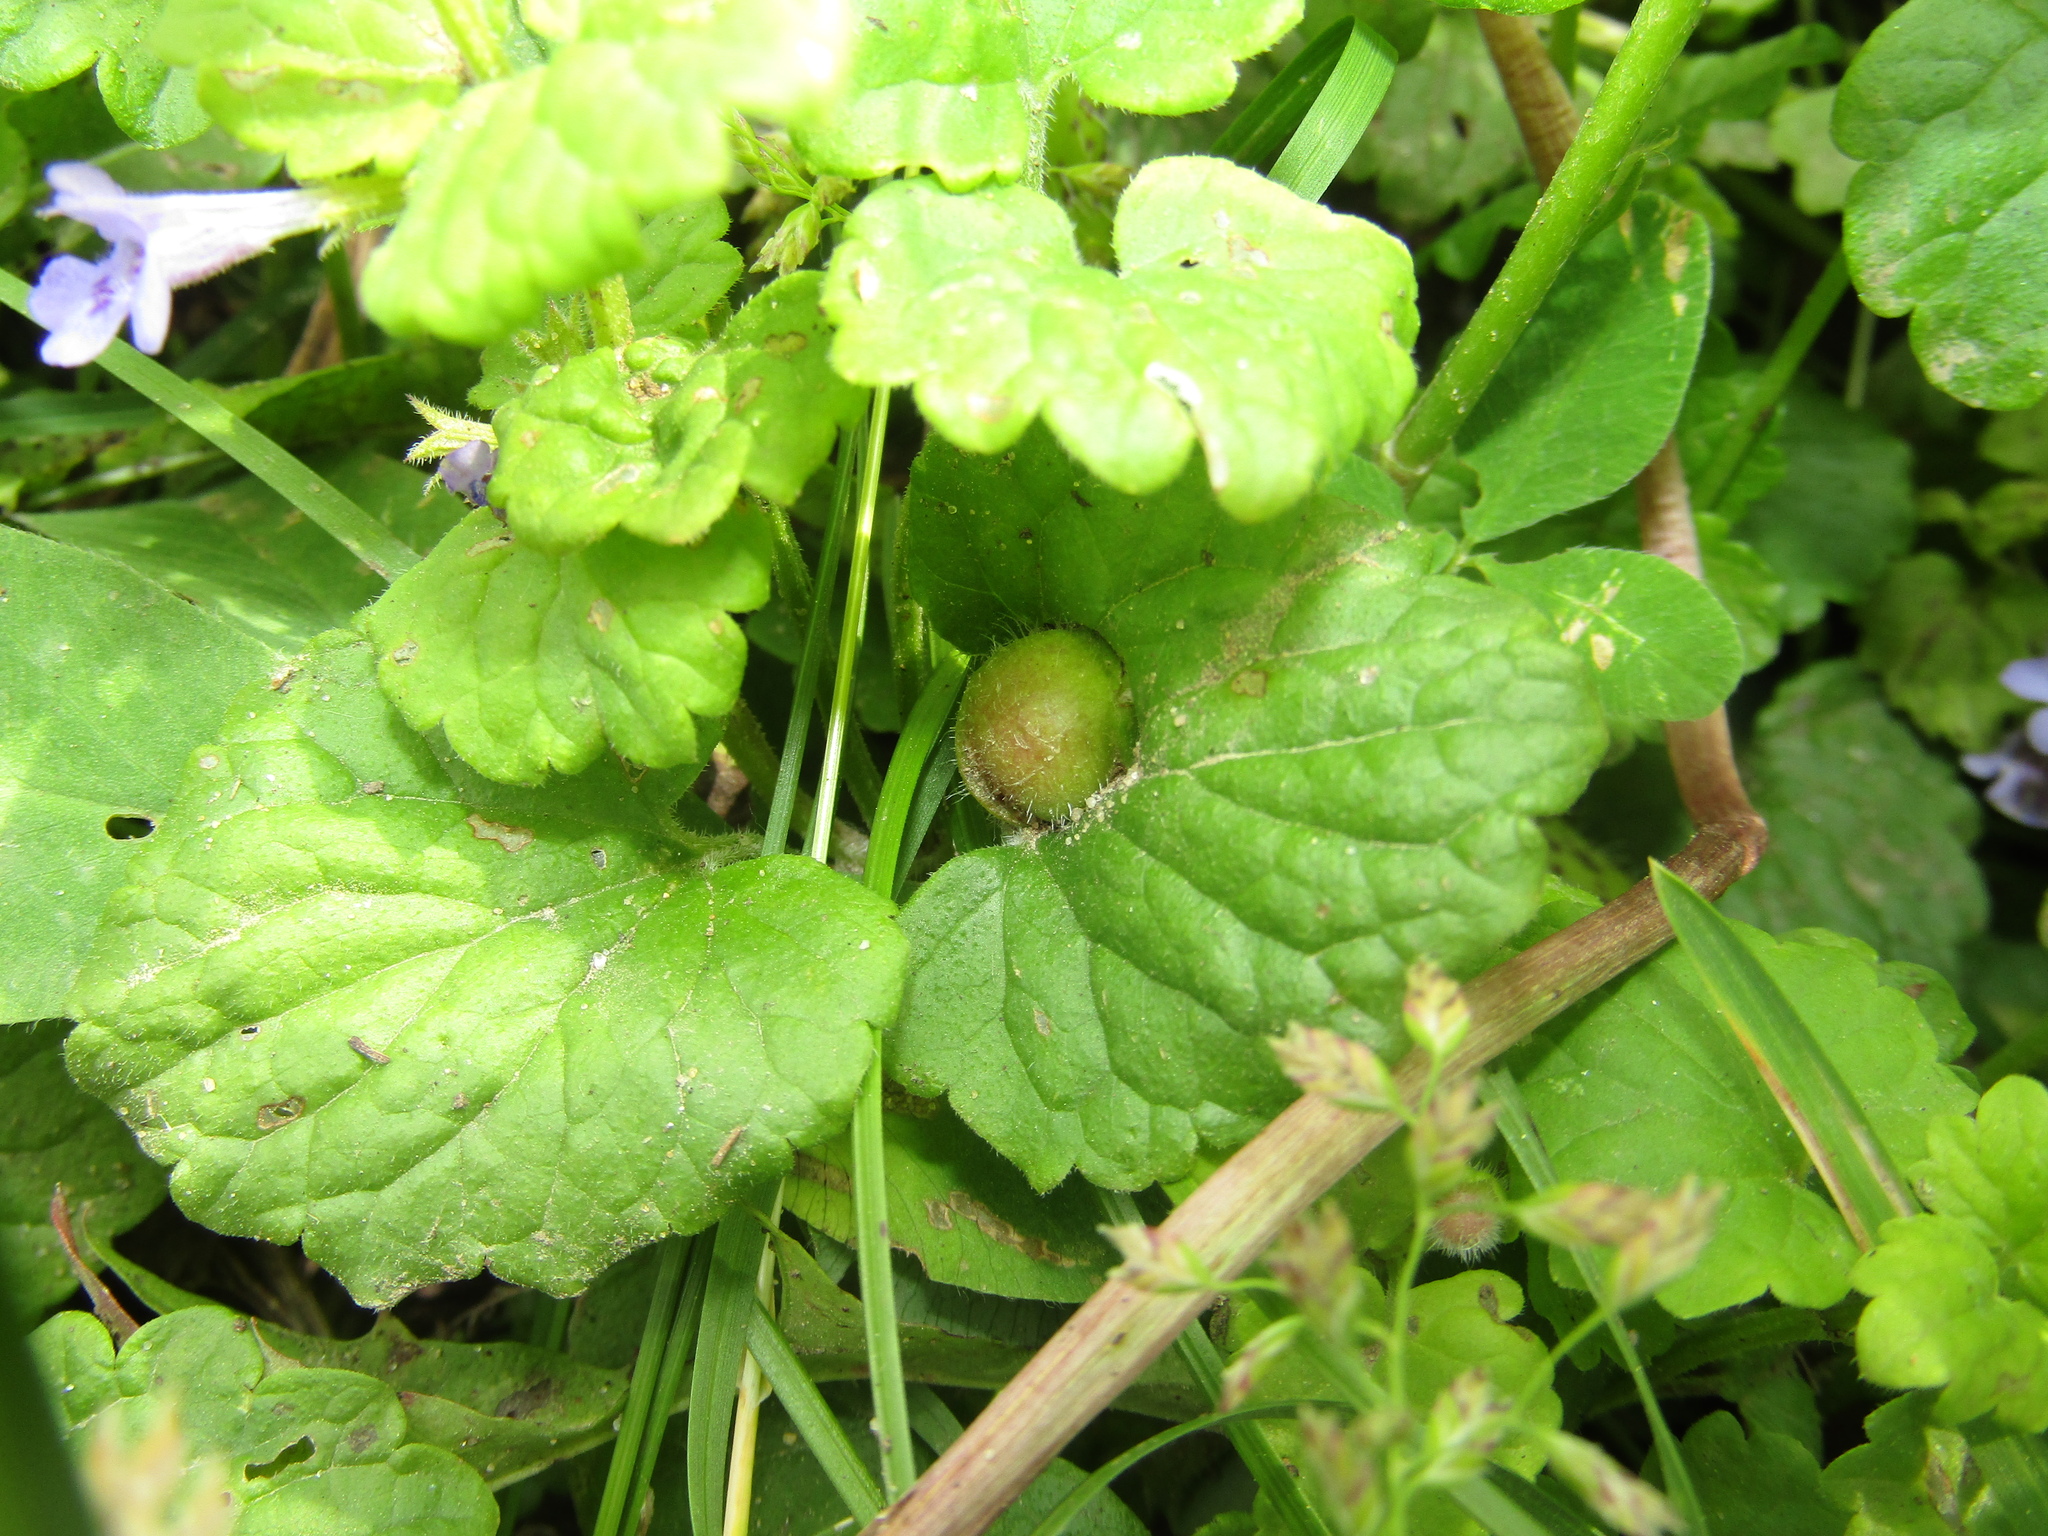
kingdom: Animalia
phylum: Arthropoda
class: Insecta
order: Hymenoptera
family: Cynipidae
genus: Liposthenes
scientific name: Liposthenes glechomae
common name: Gall wasp
